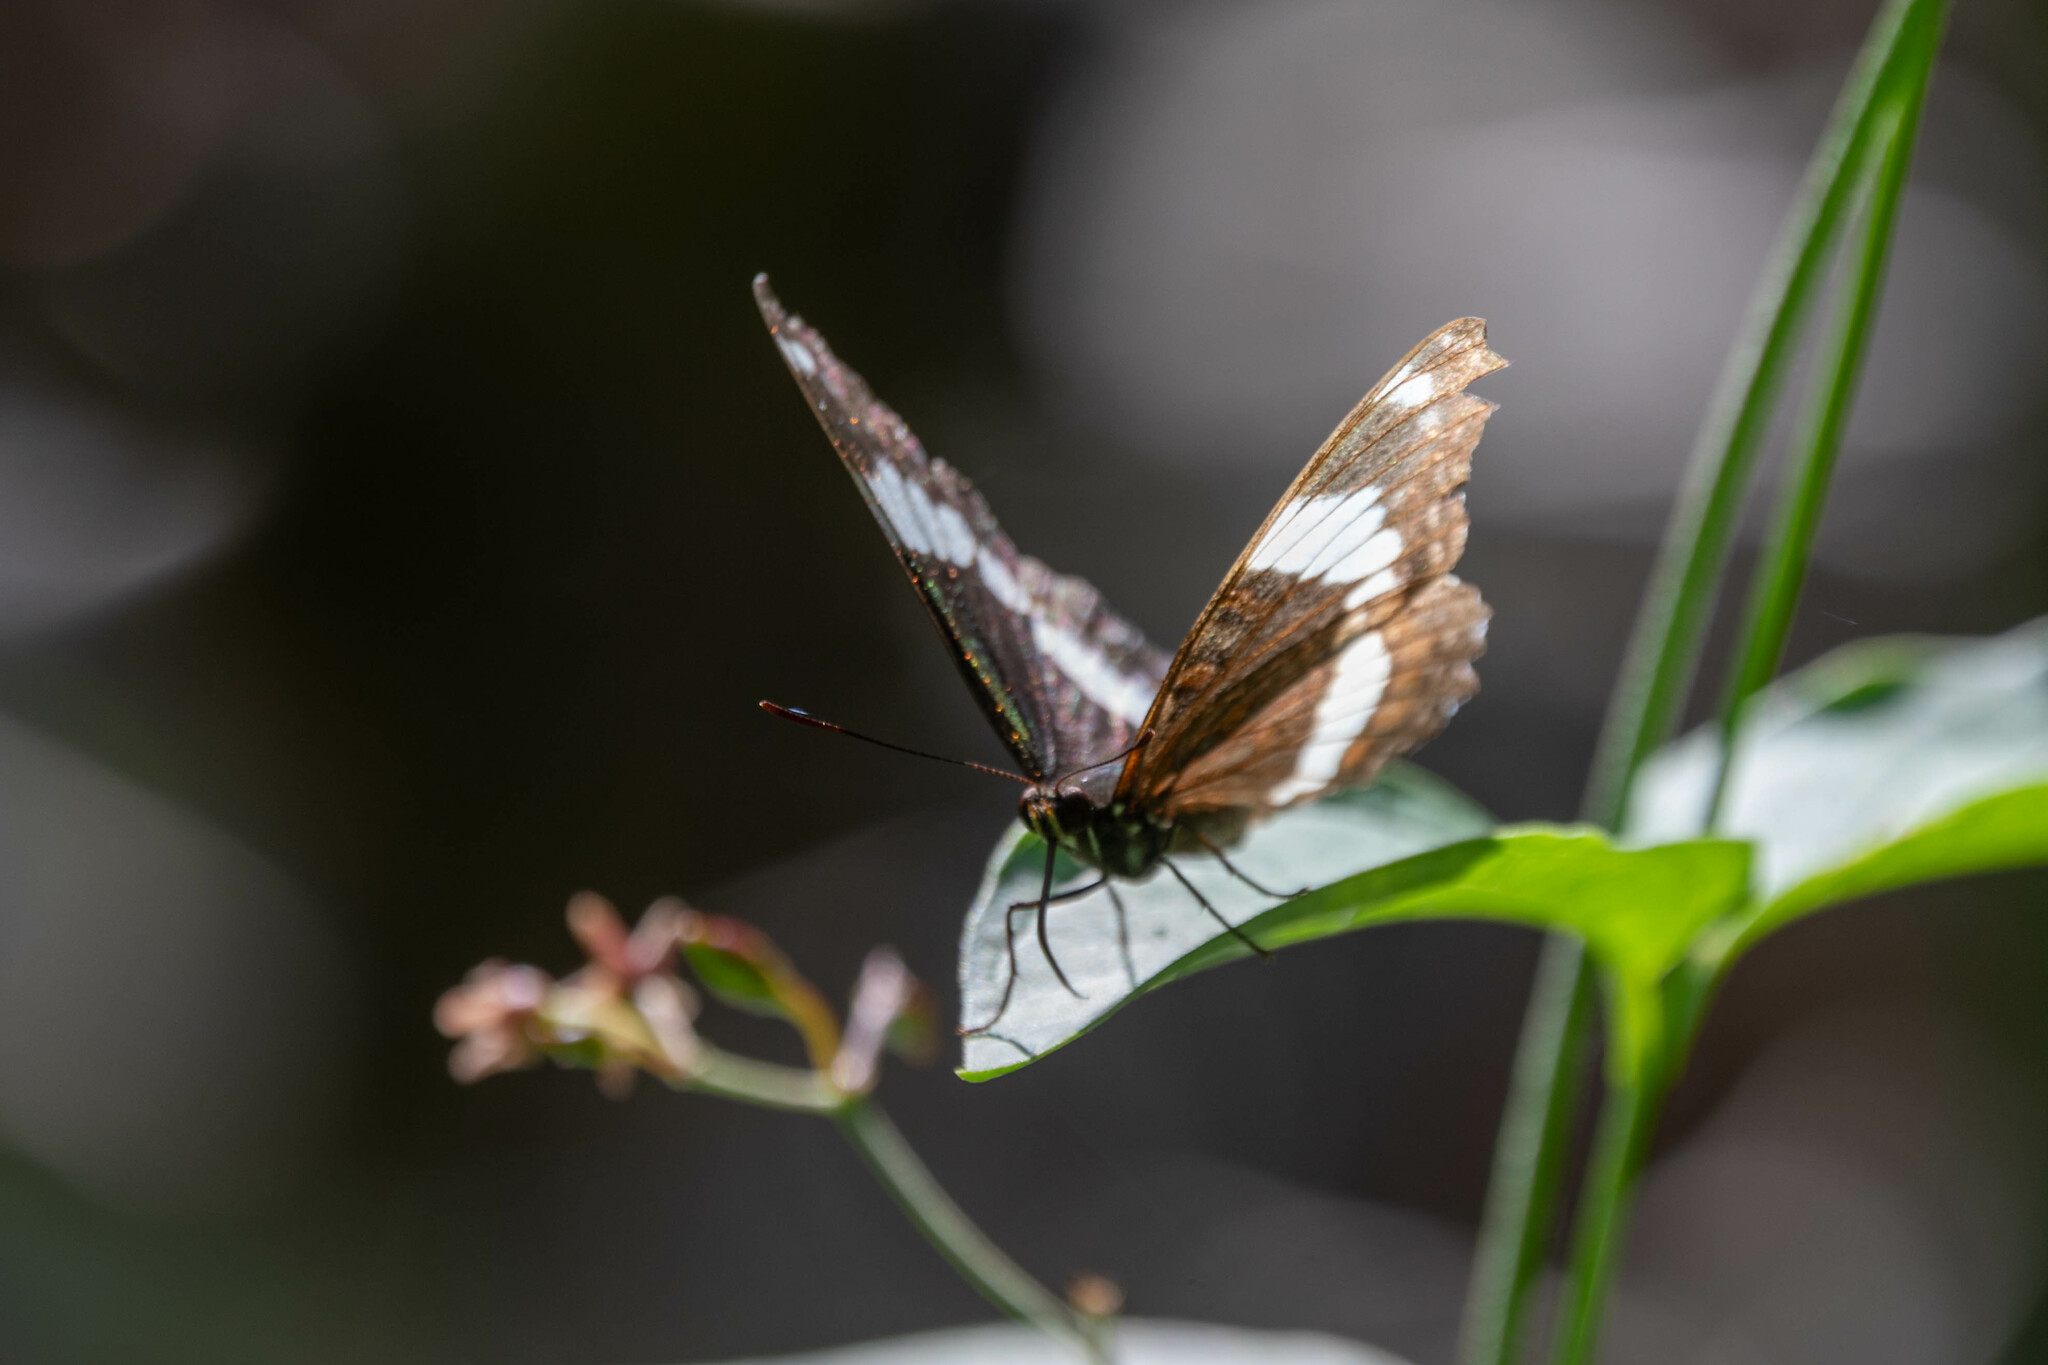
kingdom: Animalia
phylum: Arthropoda
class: Insecta
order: Lepidoptera
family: Nymphalidae
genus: Limenitis
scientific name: Limenitis arthemis
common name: Red-spotted admiral
